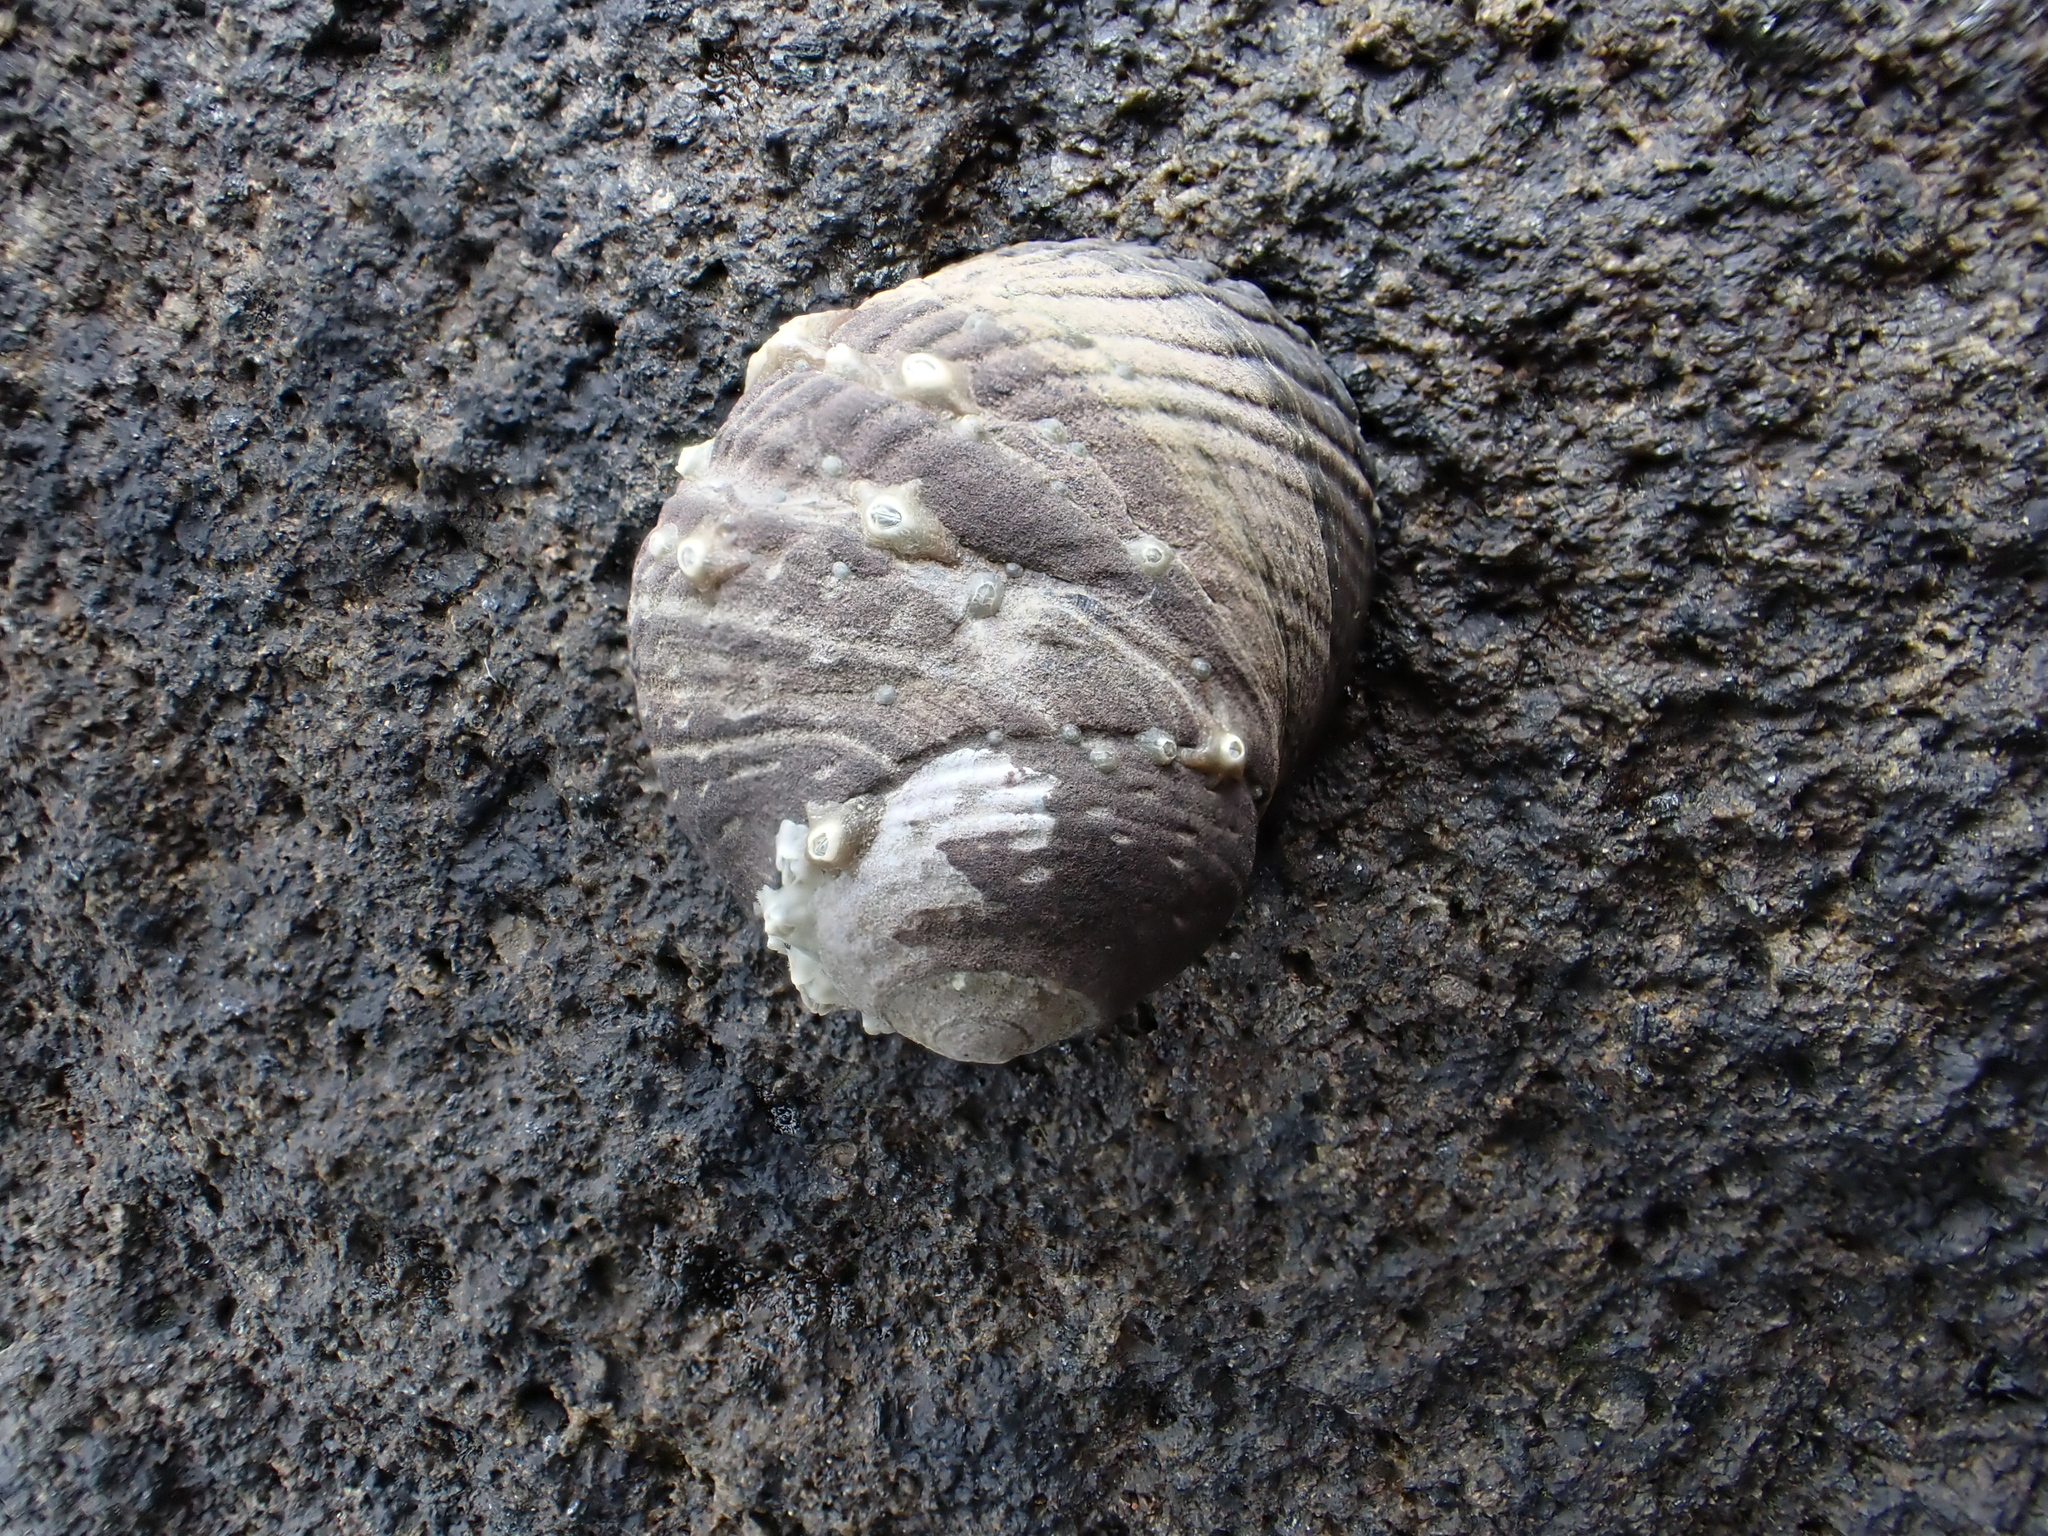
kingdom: Animalia
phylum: Mollusca
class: Gastropoda
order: Trochida
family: Trochidae
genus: Diloma
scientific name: Diloma zelandicum
